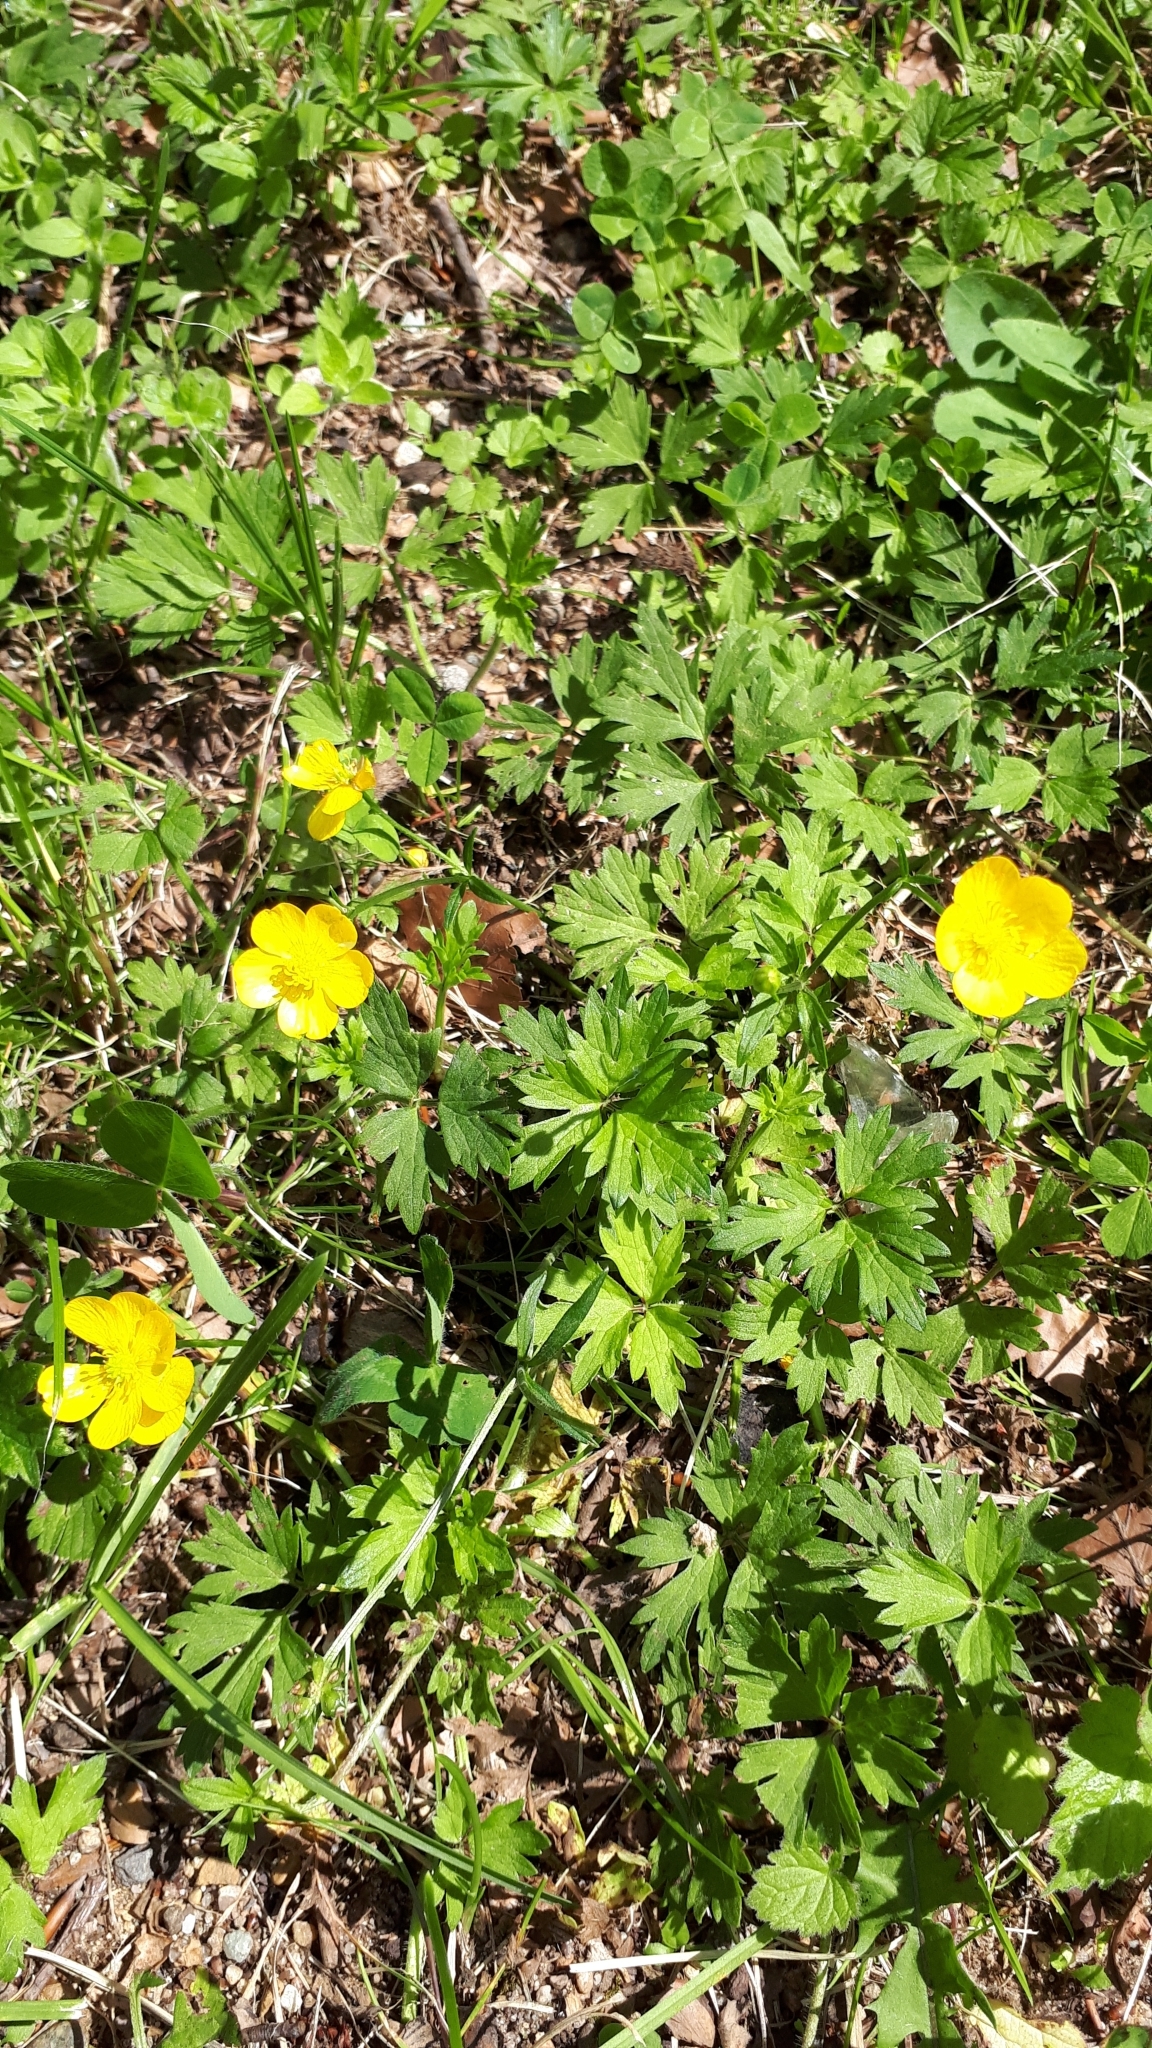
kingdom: Plantae
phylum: Tracheophyta
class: Magnoliopsida
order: Ranunculales
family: Ranunculaceae
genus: Ranunculus
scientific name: Ranunculus repens
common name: Creeping buttercup
